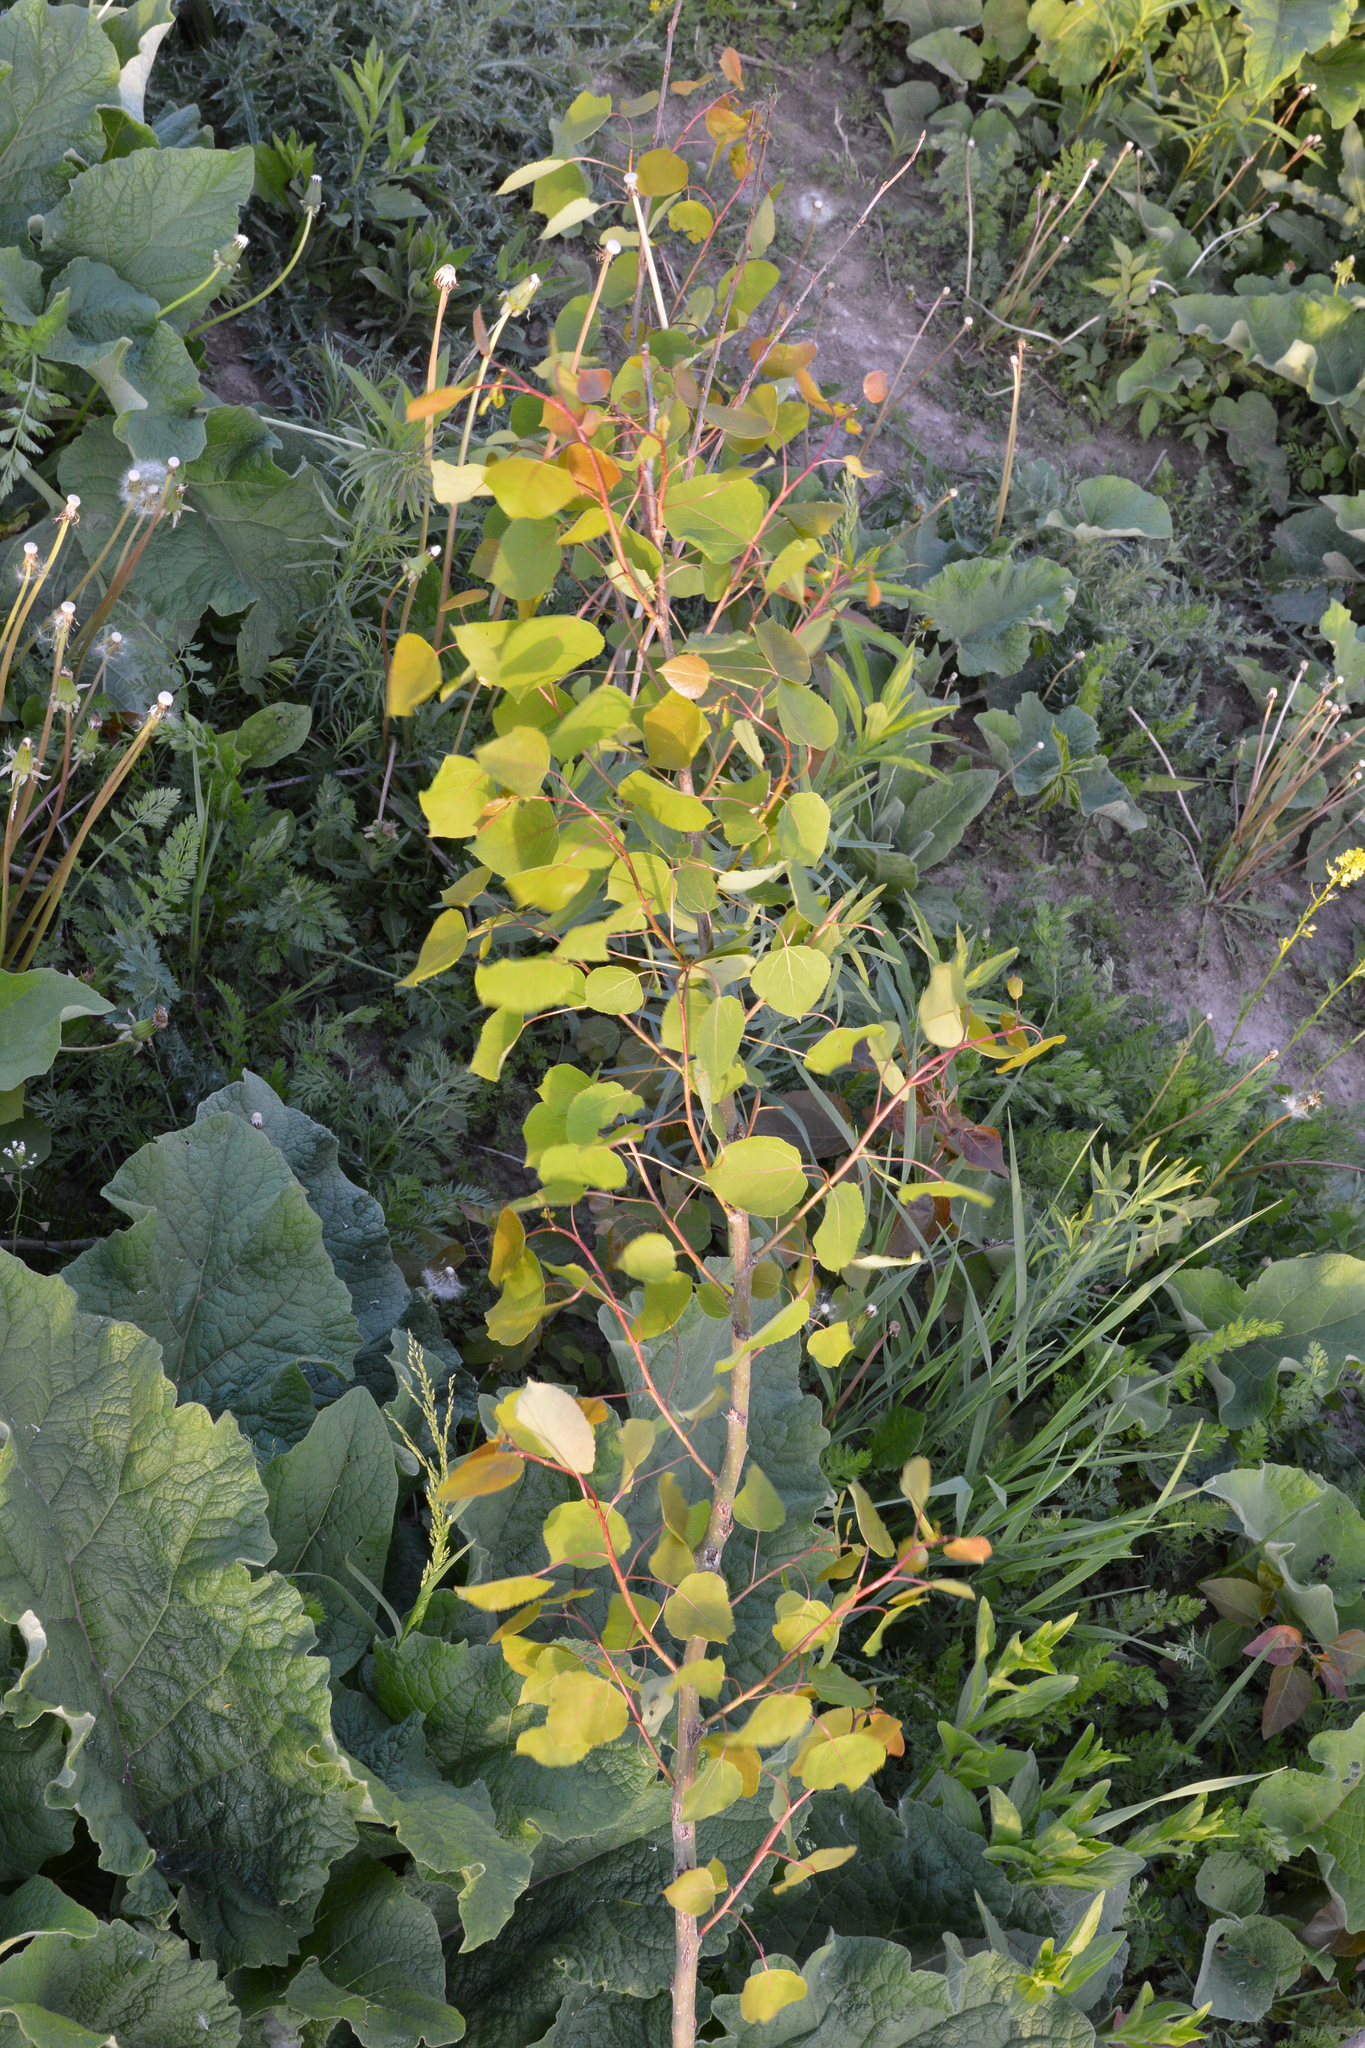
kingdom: Plantae
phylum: Tracheophyta
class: Magnoliopsida
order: Malpighiales
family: Salicaceae
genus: Populus
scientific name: Populus tremuloides
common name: Quaking aspen
